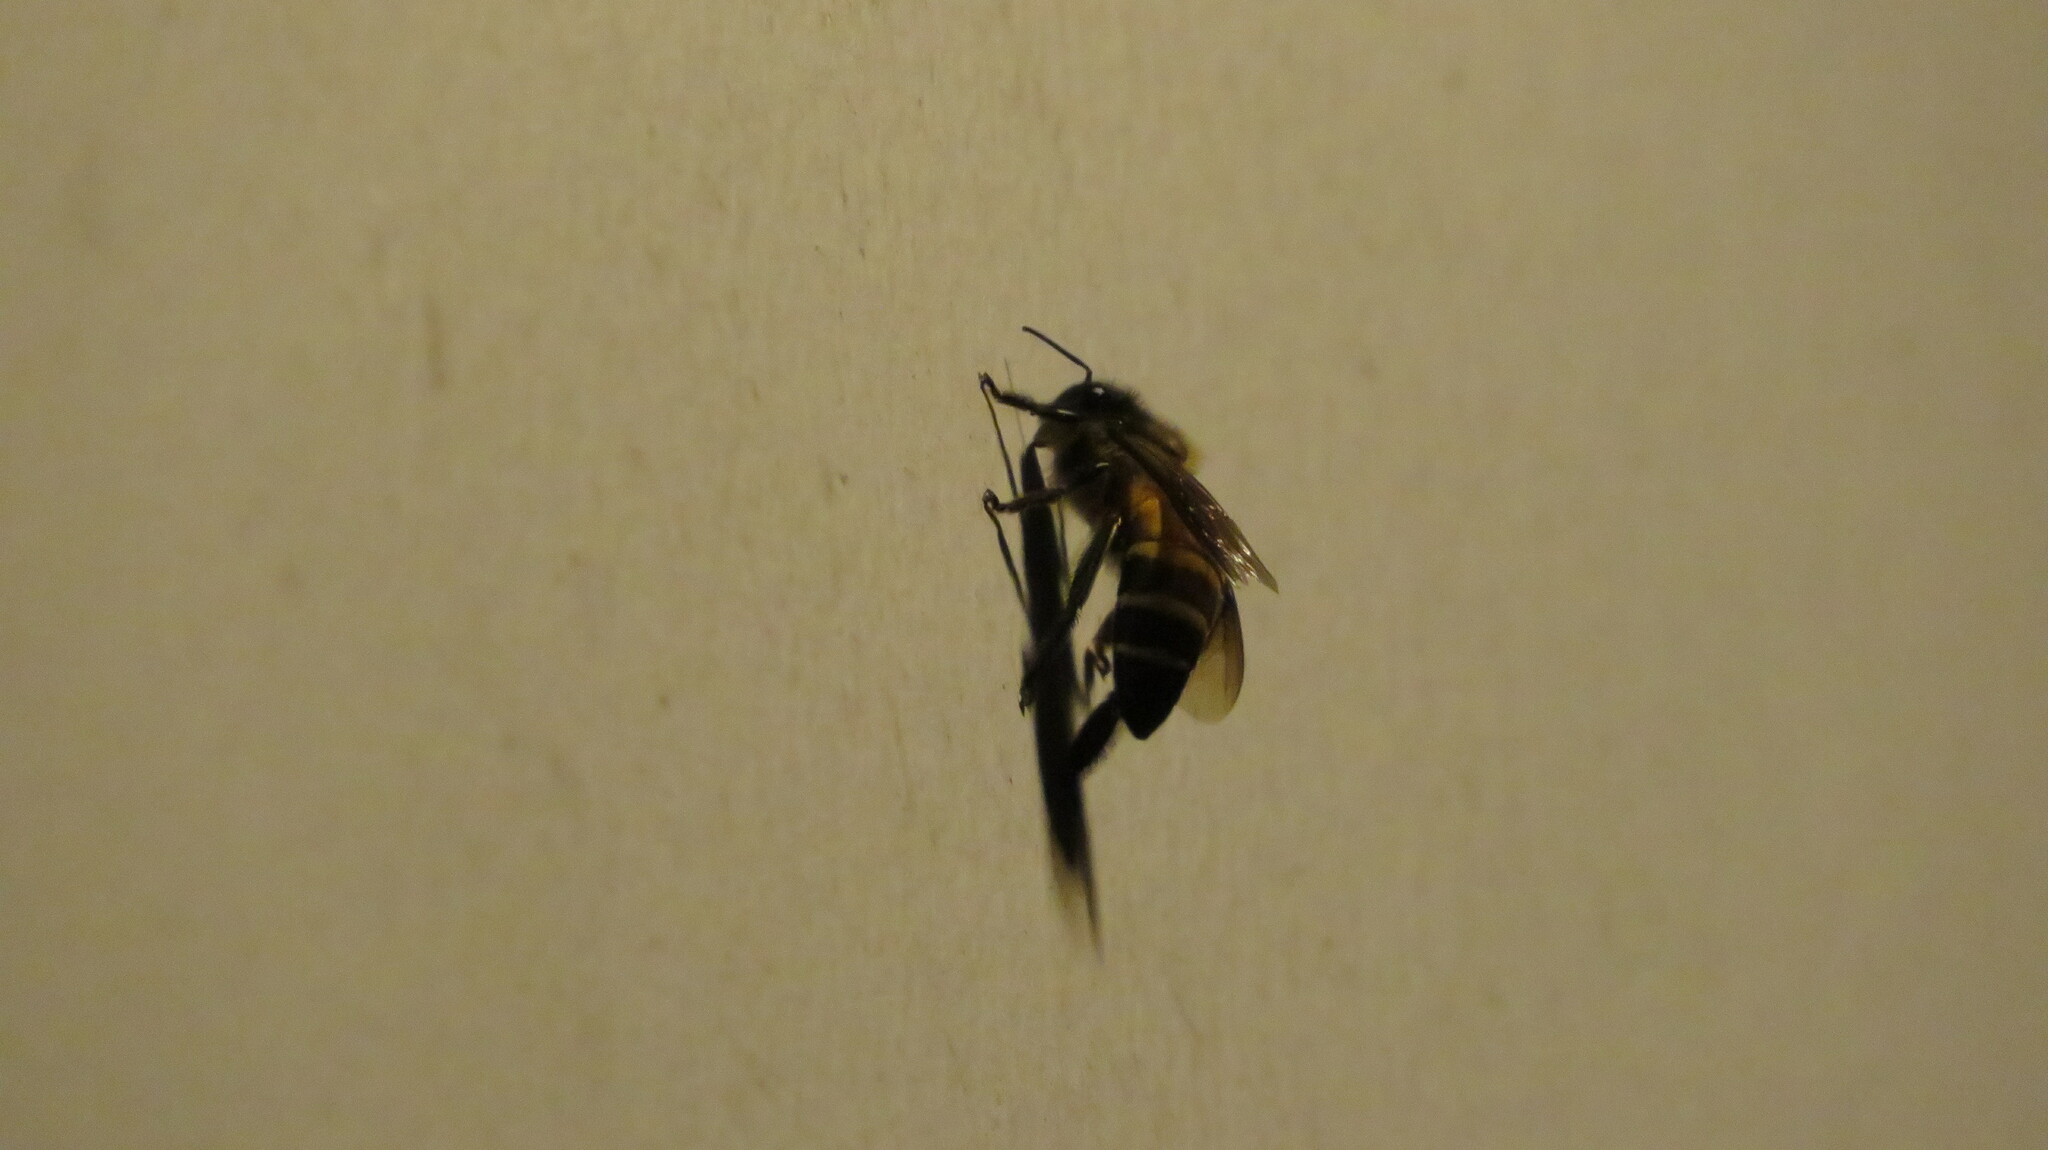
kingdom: Animalia
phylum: Arthropoda
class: Insecta
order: Hymenoptera
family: Apidae
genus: Apis
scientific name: Apis dorsata
